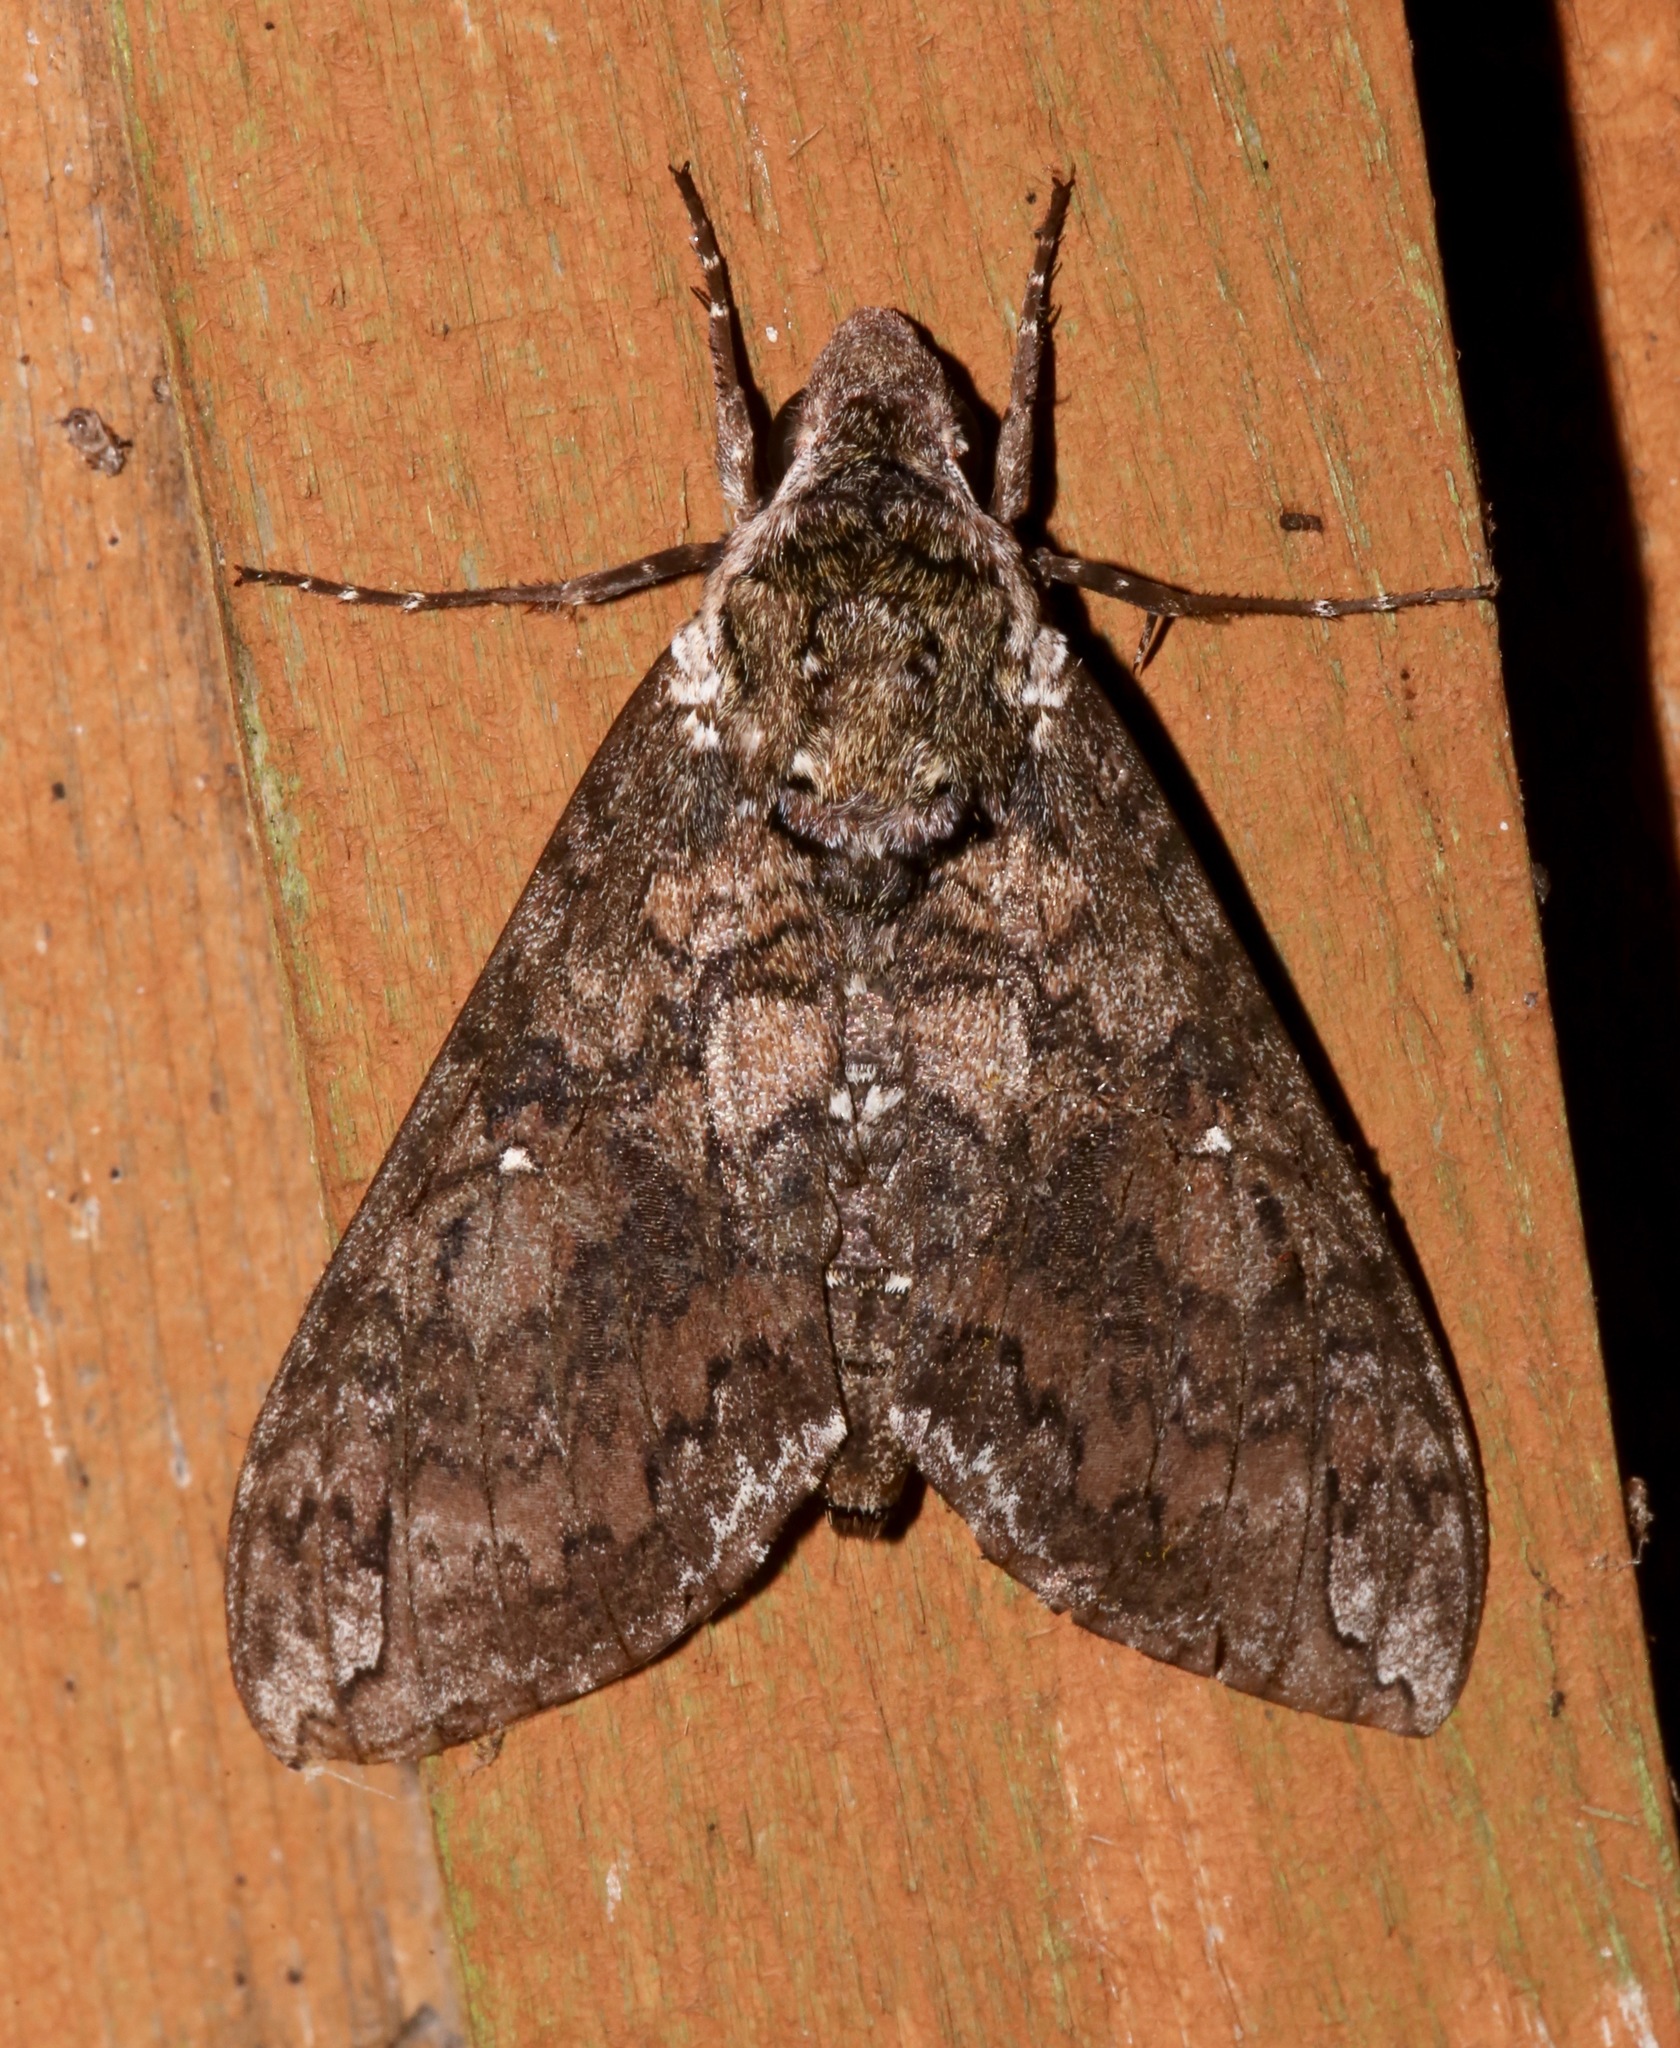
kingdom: Animalia
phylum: Arthropoda
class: Insecta
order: Lepidoptera
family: Sphingidae
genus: Manduca
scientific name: Manduca sexta
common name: Carolina sphinx
